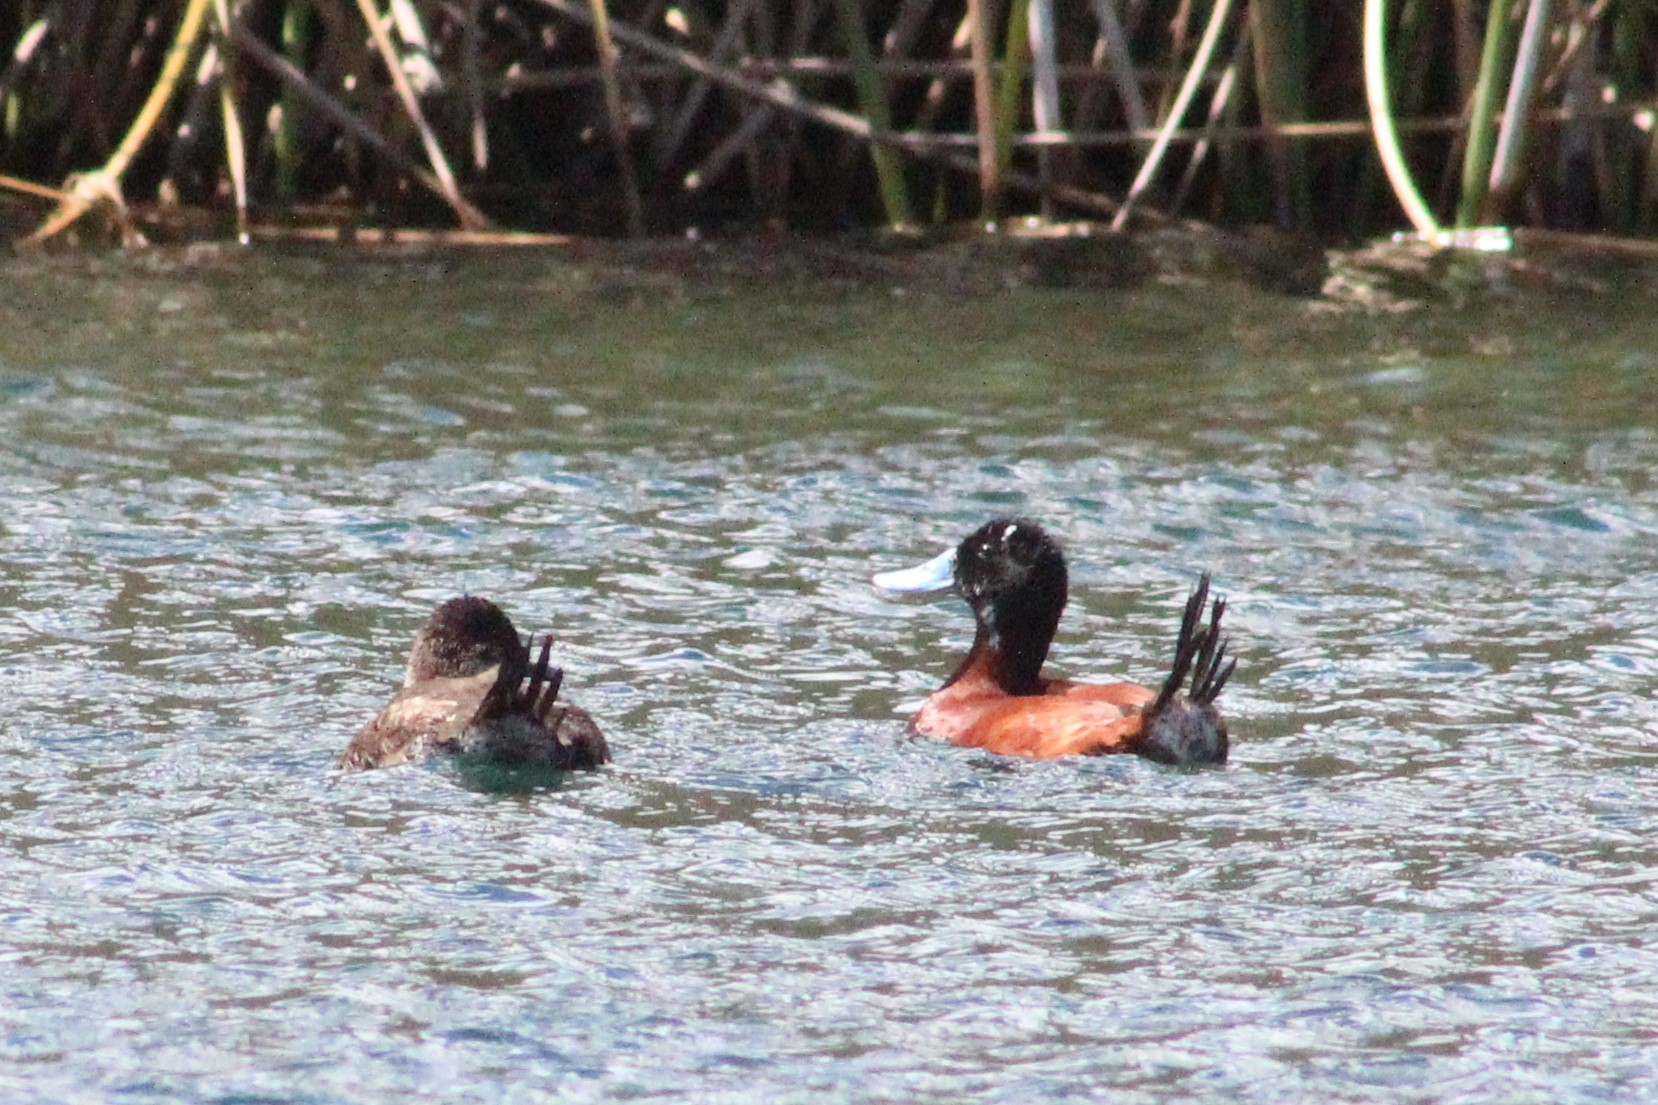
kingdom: Animalia
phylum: Chordata
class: Aves
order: Anseriformes
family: Anatidae
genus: Oxyura
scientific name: Oxyura ferruginea
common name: Andean duck
